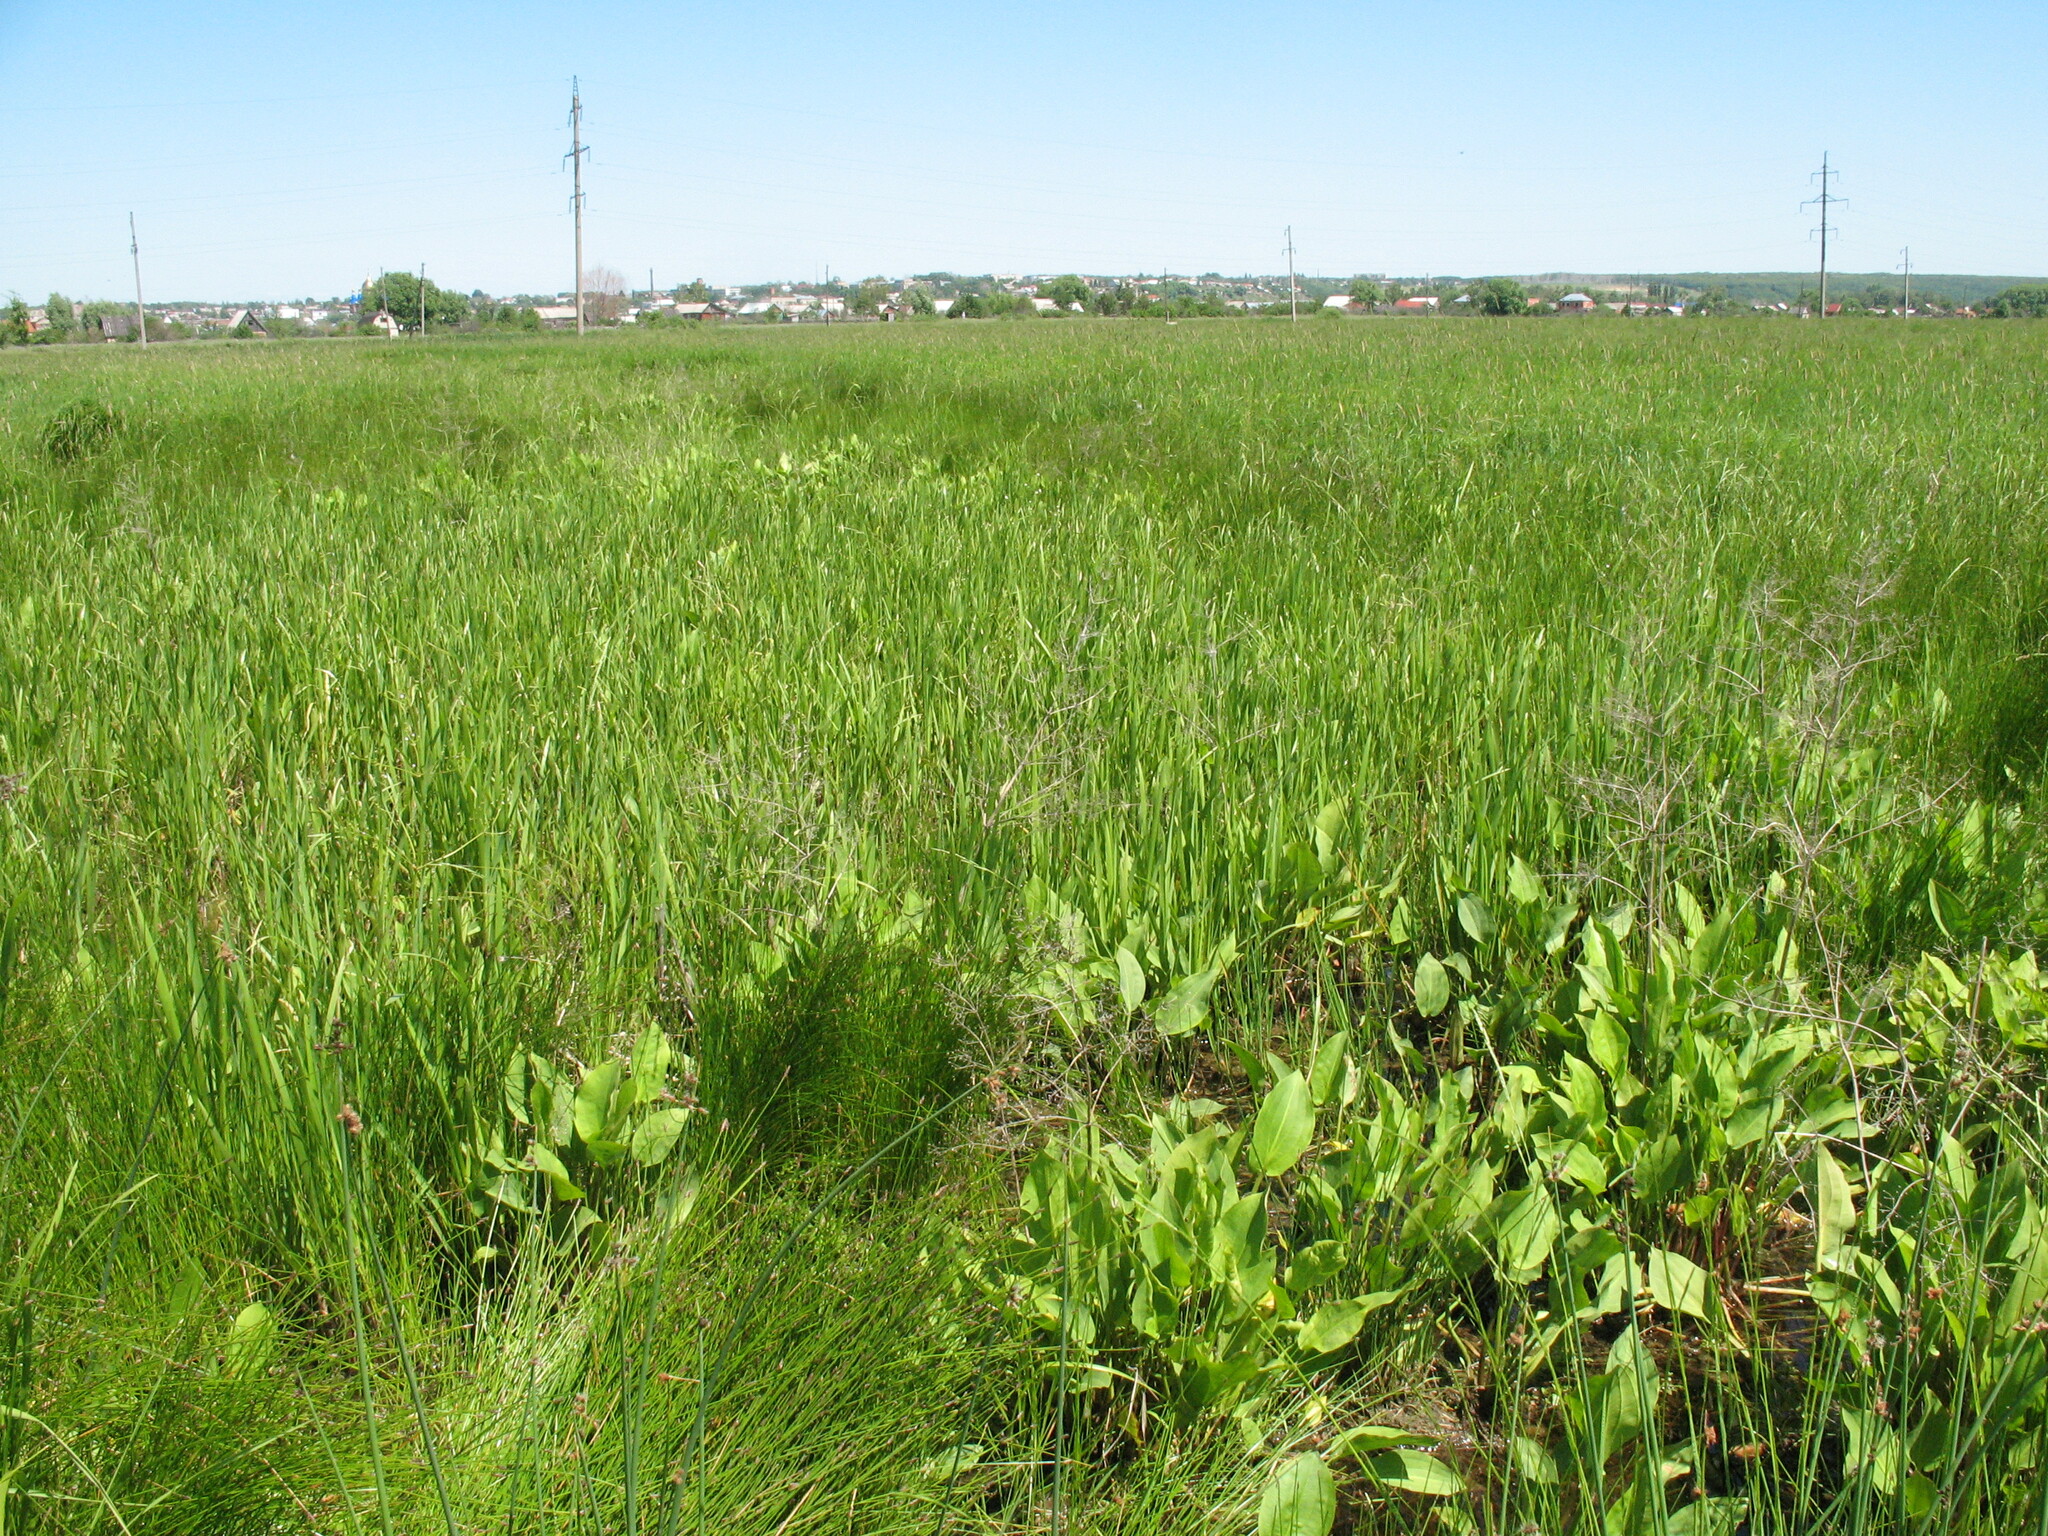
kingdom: Plantae
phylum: Tracheophyta
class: Liliopsida
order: Alismatales
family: Alismataceae
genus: Alisma
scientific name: Alisma plantago-aquatica
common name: Water-plantain
